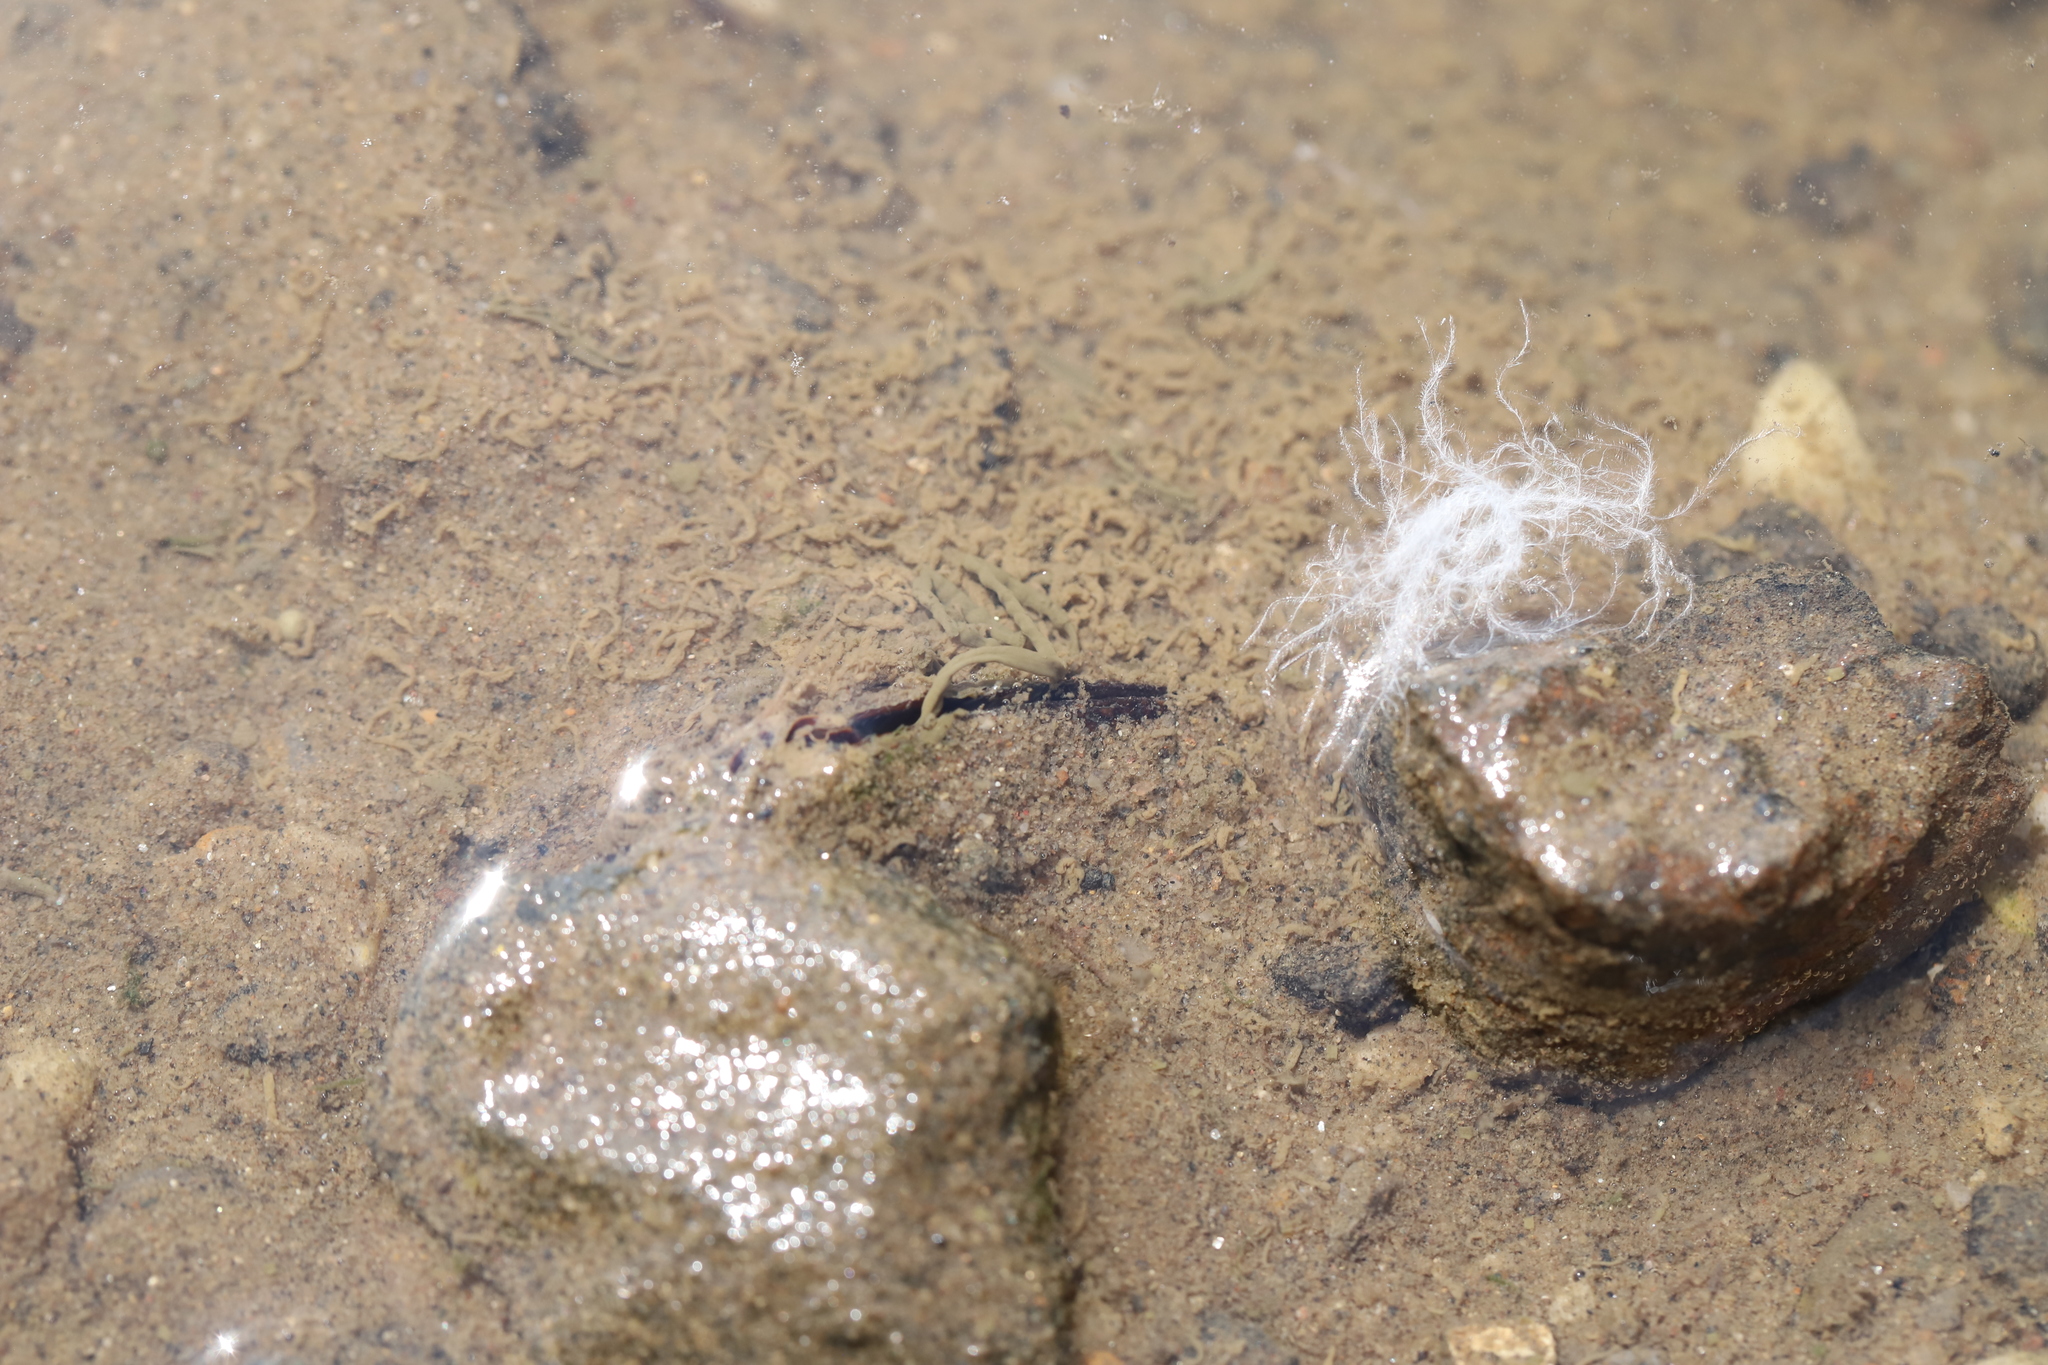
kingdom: Animalia
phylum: Mollusca
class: Bivalvia
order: Mytilida
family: Mytilidae
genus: Geukensia
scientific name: Geukensia demissa
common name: Ribbed mussel
